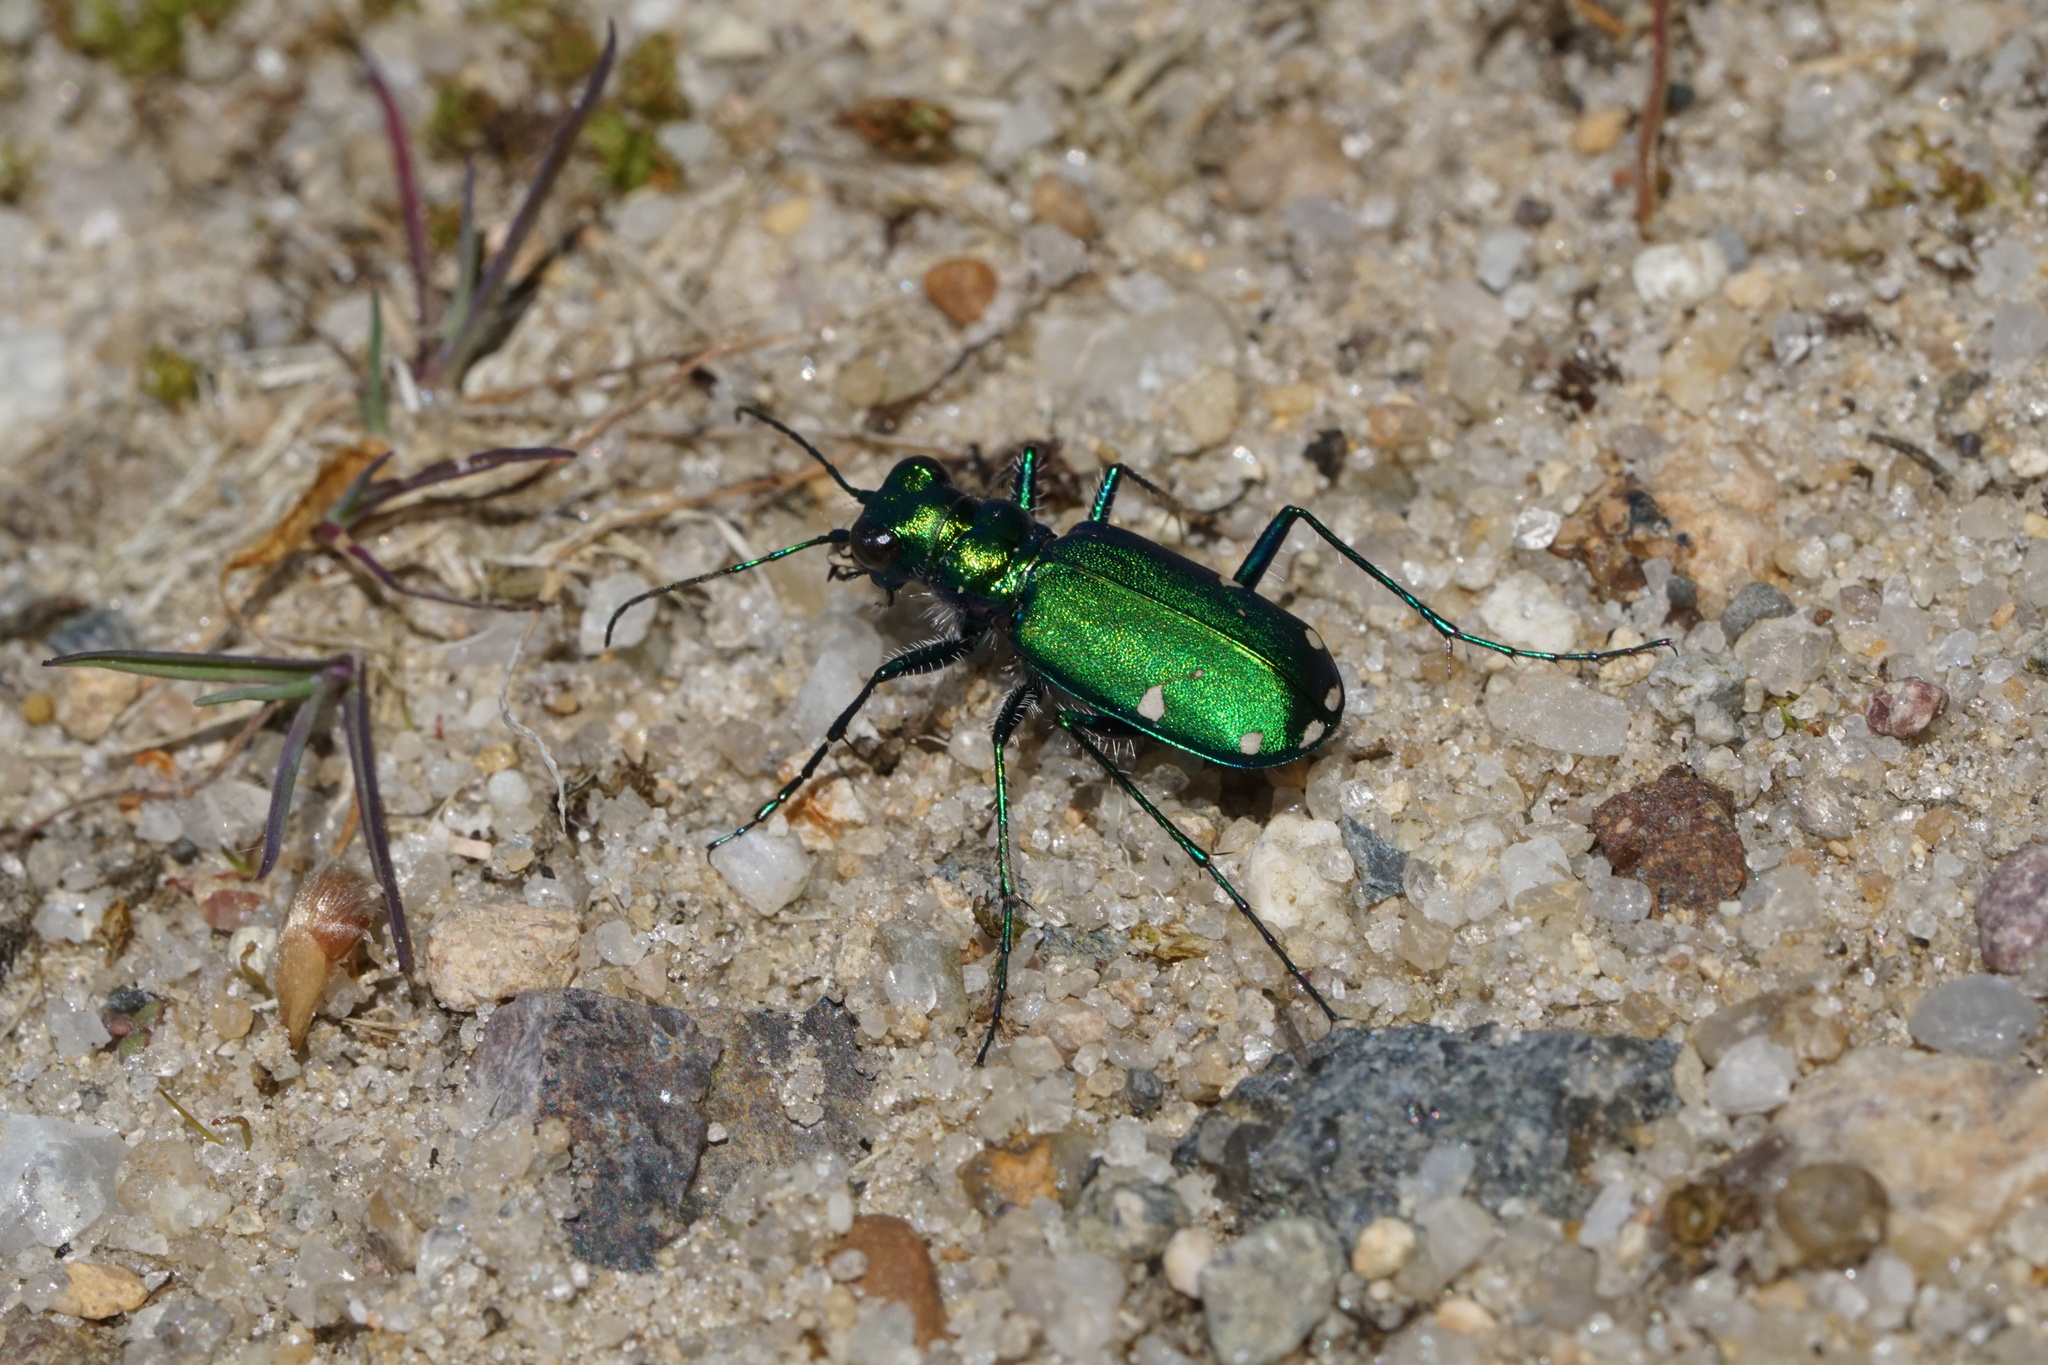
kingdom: Animalia
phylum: Arthropoda
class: Insecta
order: Coleoptera
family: Carabidae
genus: Cicindela
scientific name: Cicindela sexguttata
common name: Six-spotted tiger beetle
